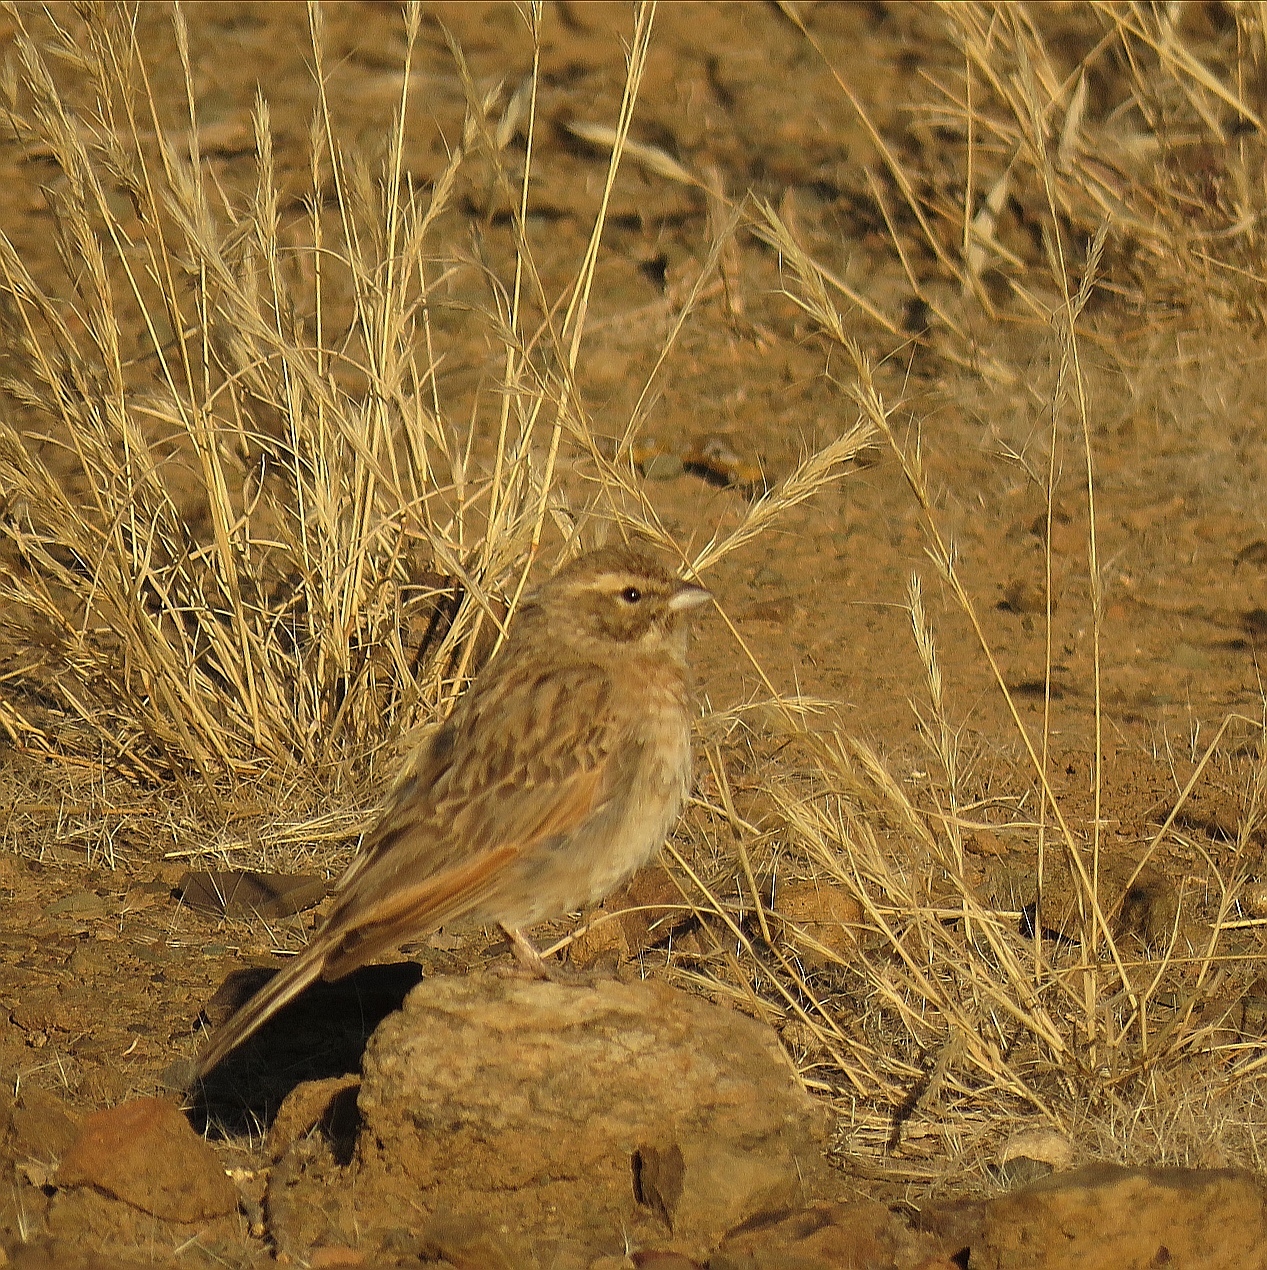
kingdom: Animalia
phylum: Chordata
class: Aves
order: Passeriformes
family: Emberizidae
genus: Emberiza
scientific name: Emberiza impetuani
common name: Lark-like bunting
